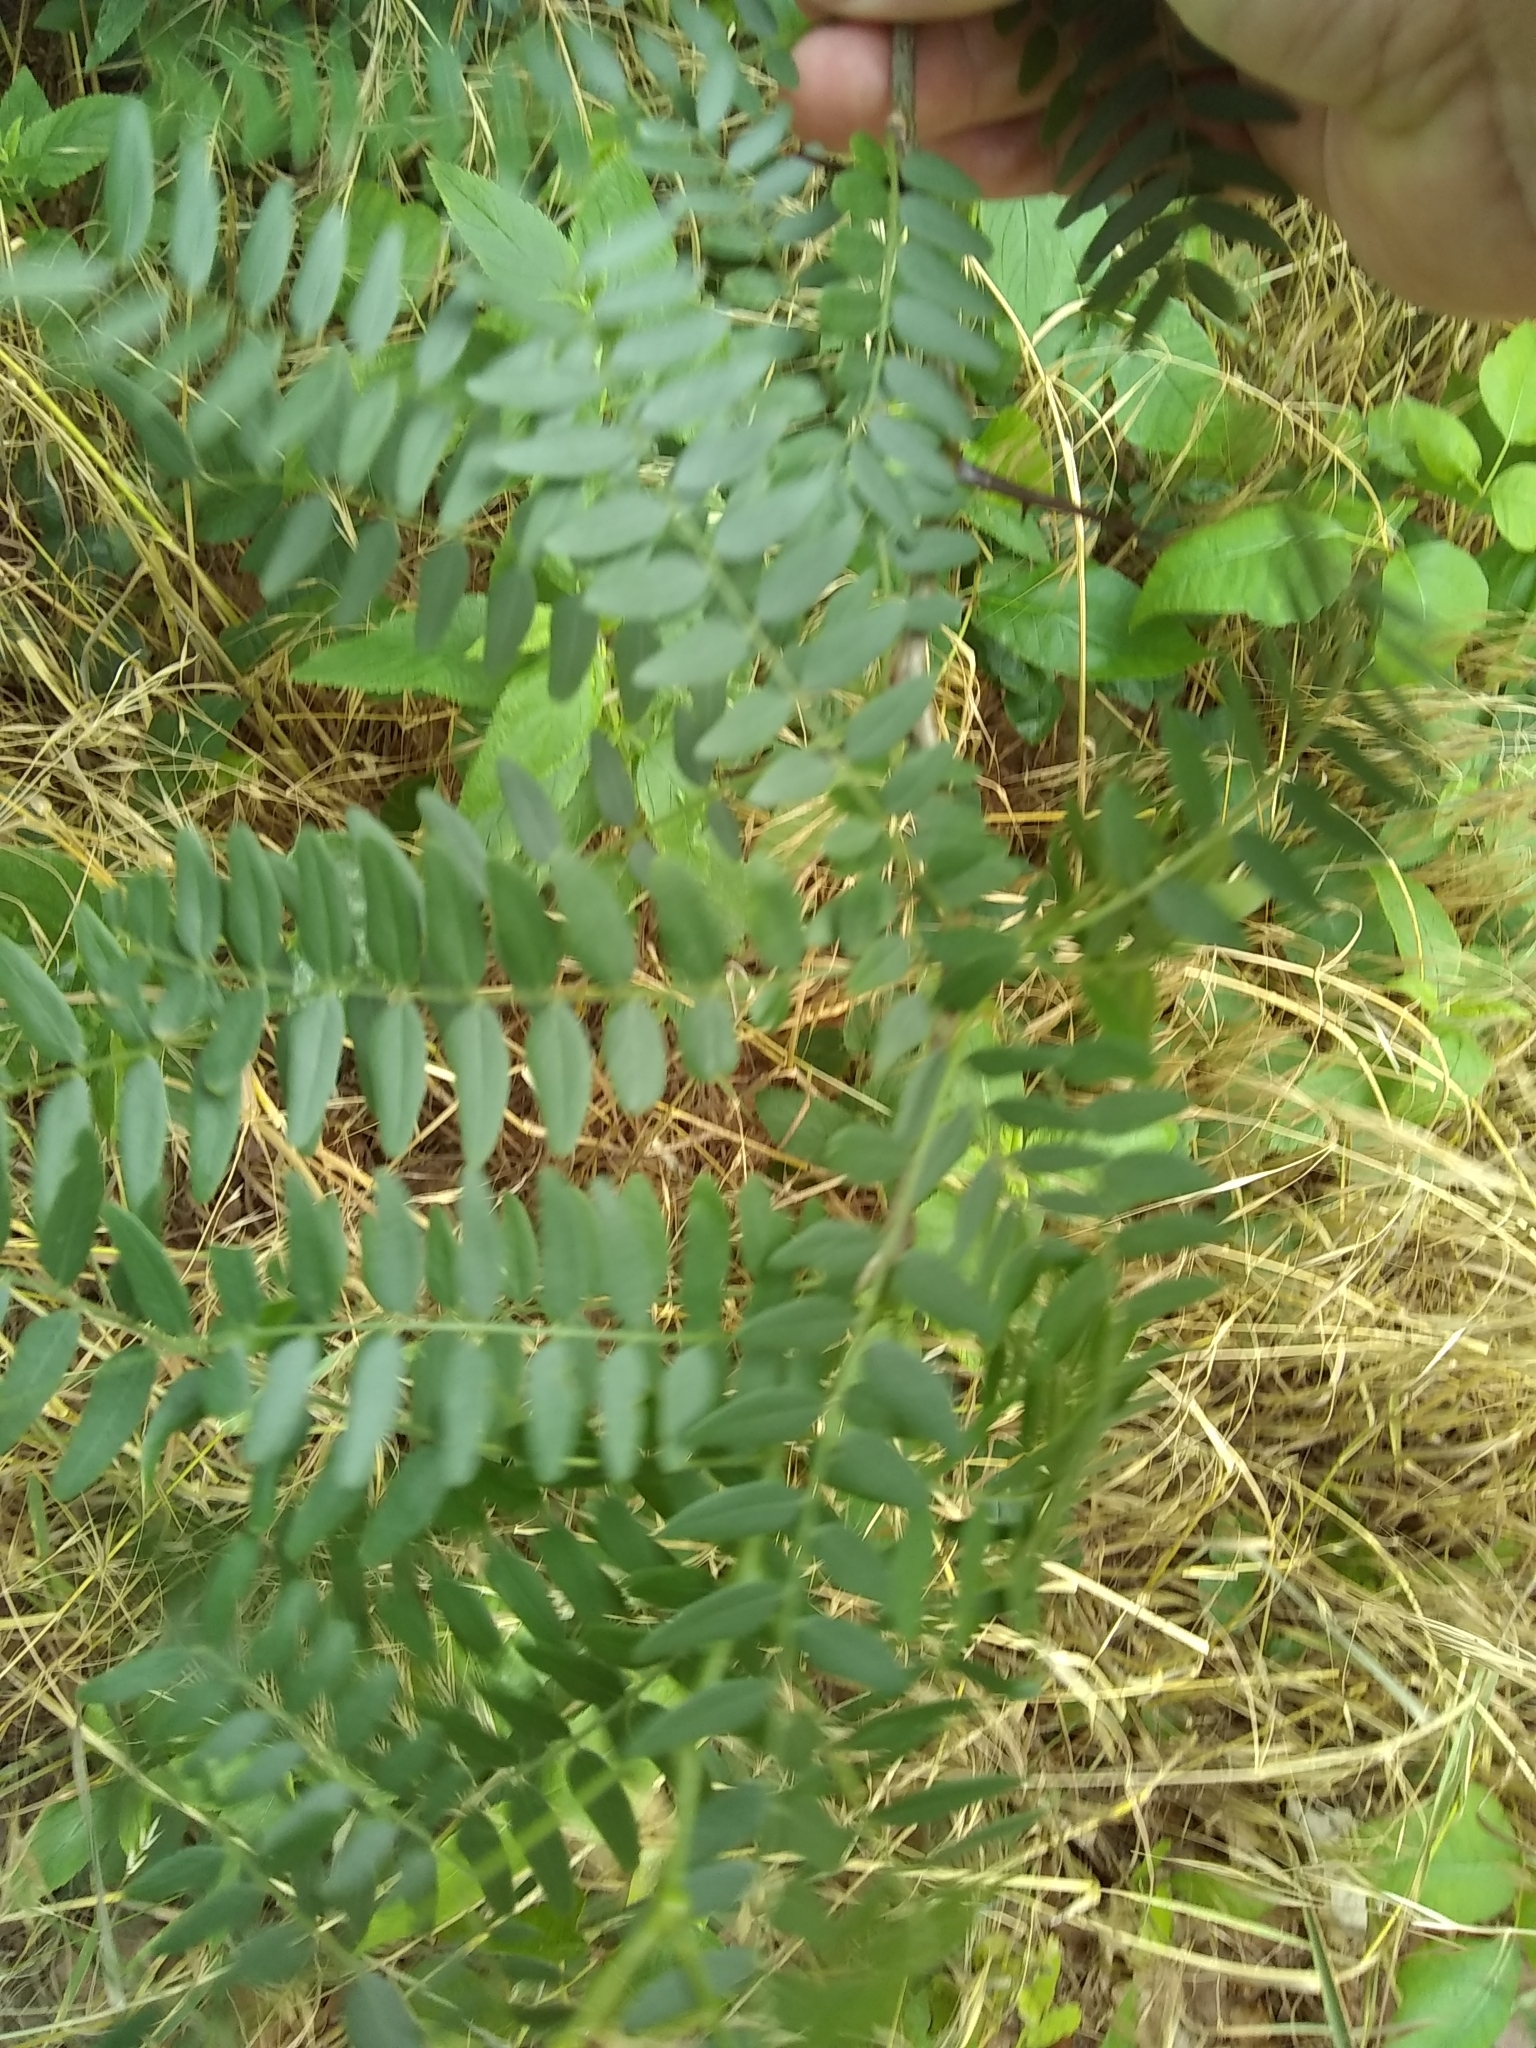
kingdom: Plantae
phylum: Tracheophyta
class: Magnoliopsida
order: Fabales
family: Fabaceae
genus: Gleditsia
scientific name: Gleditsia triacanthos
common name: Common honeylocust
